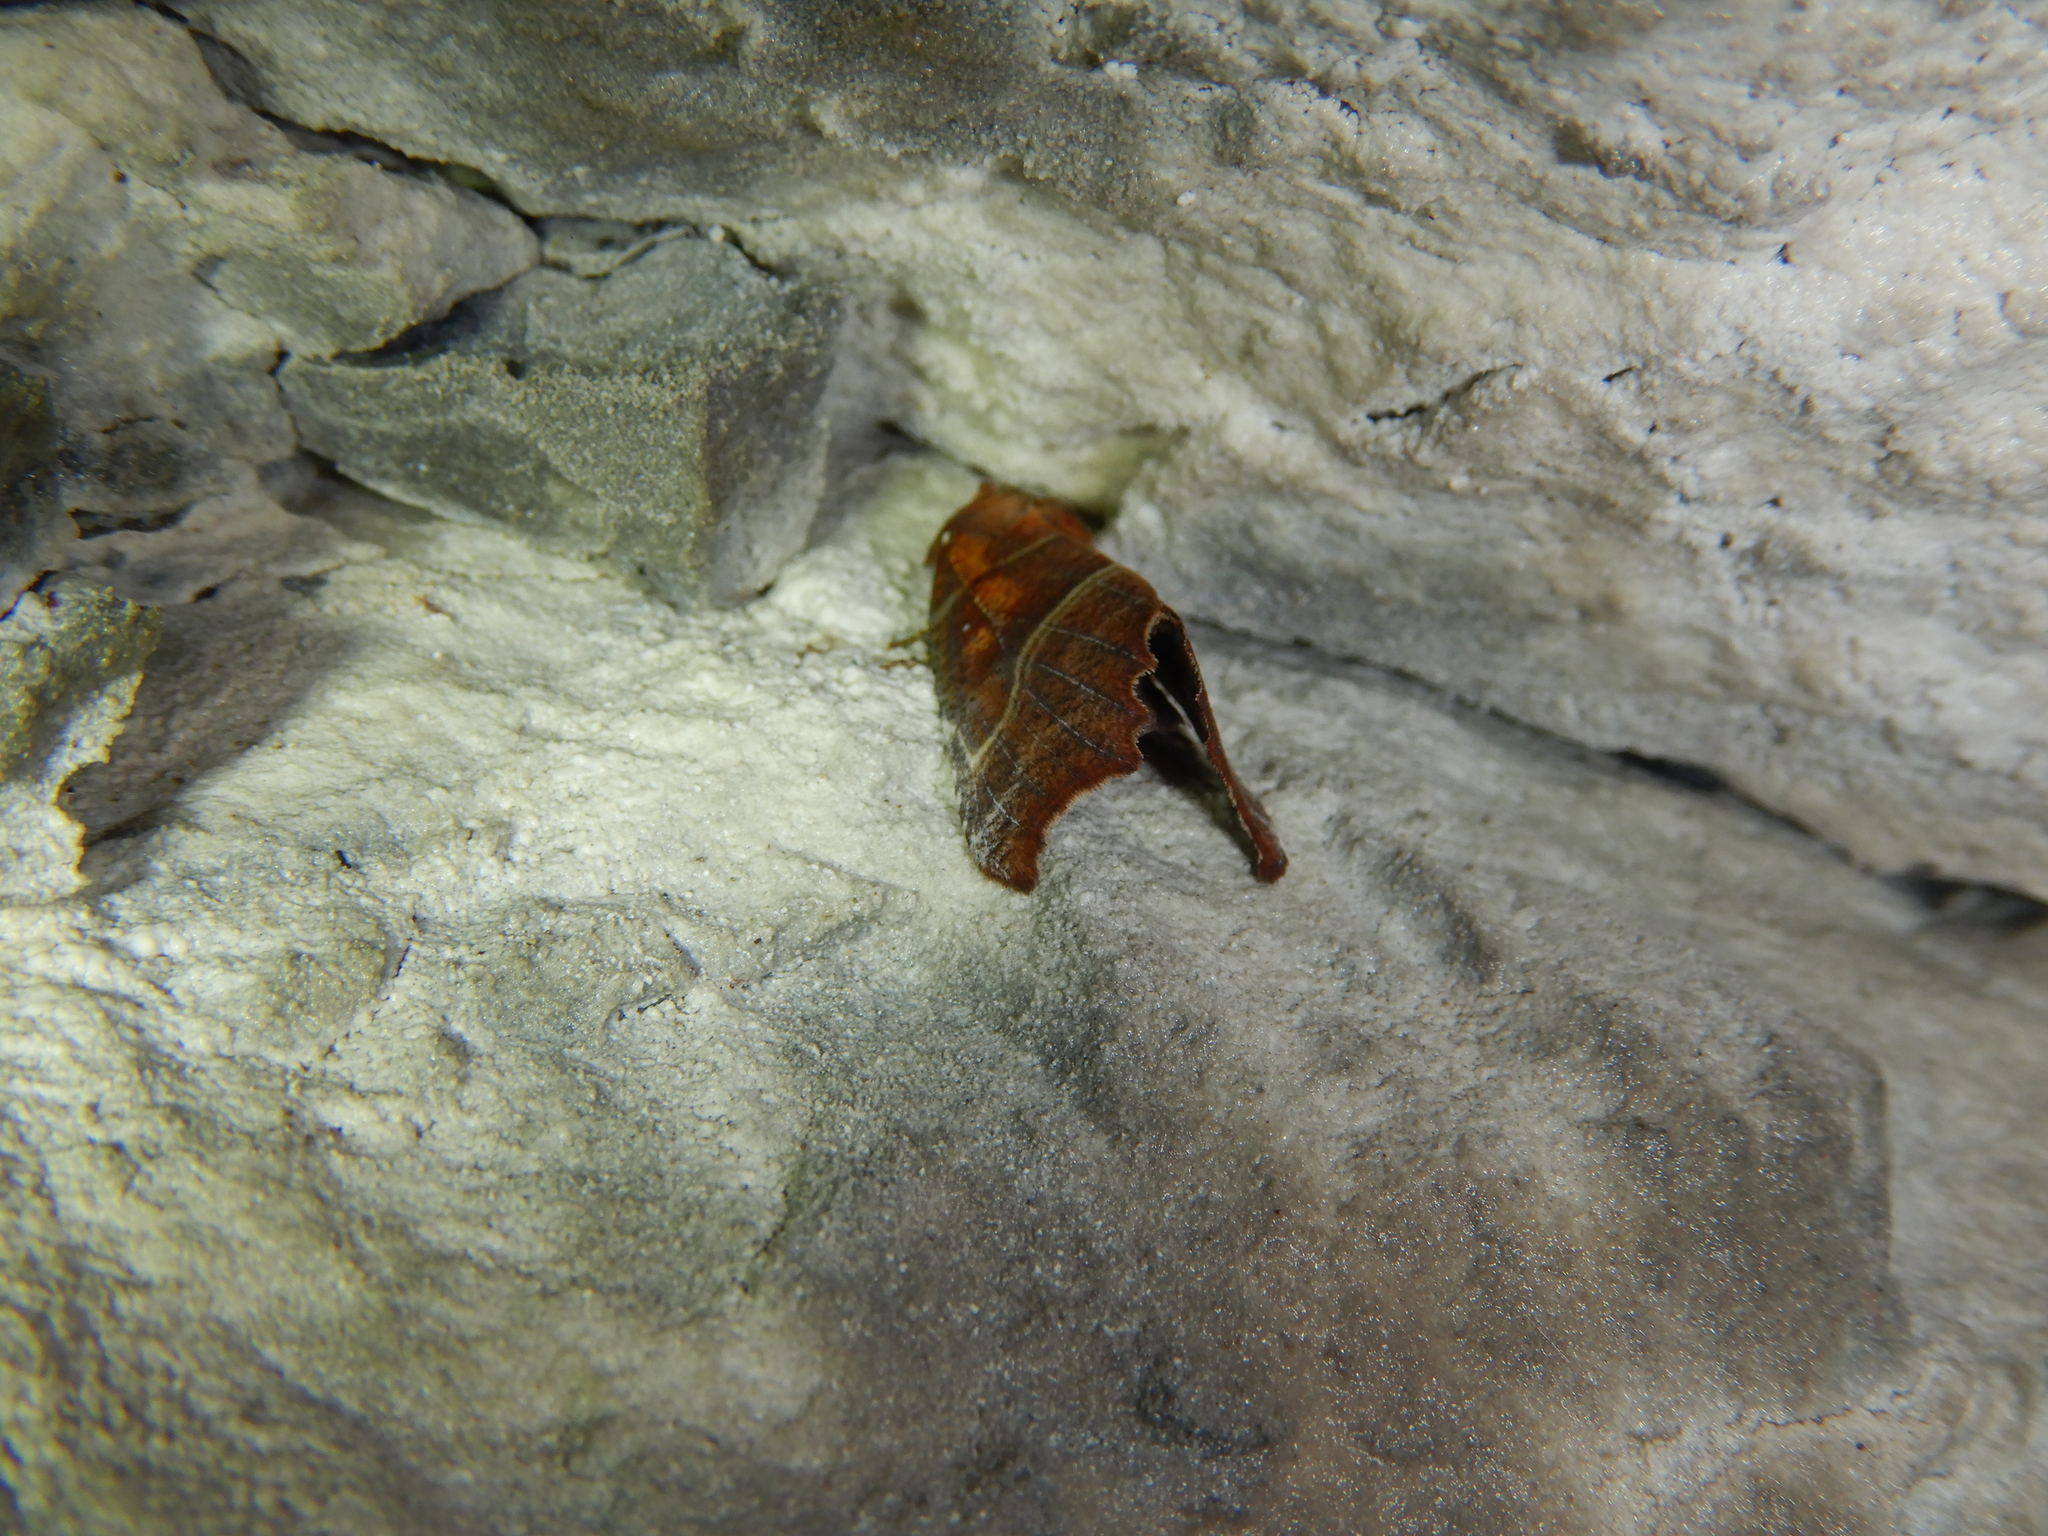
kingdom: Animalia
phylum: Arthropoda
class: Insecta
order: Lepidoptera
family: Erebidae
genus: Scoliopteryx
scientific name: Scoliopteryx libatrix
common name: Herald
